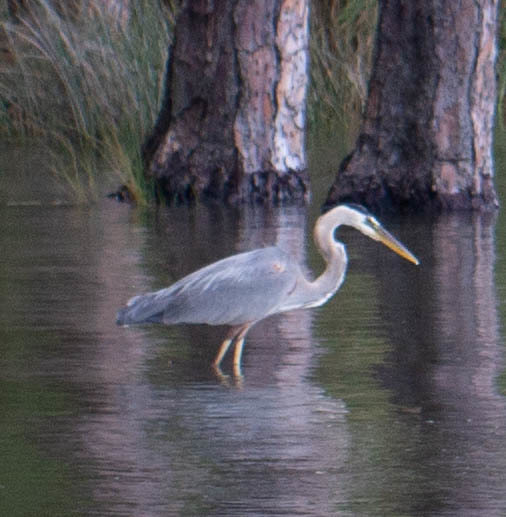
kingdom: Animalia
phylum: Chordata
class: Aves
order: Pelecaniformes
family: Ardeidae
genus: Ardea
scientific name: Ardea herodias
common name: Great blue heron
